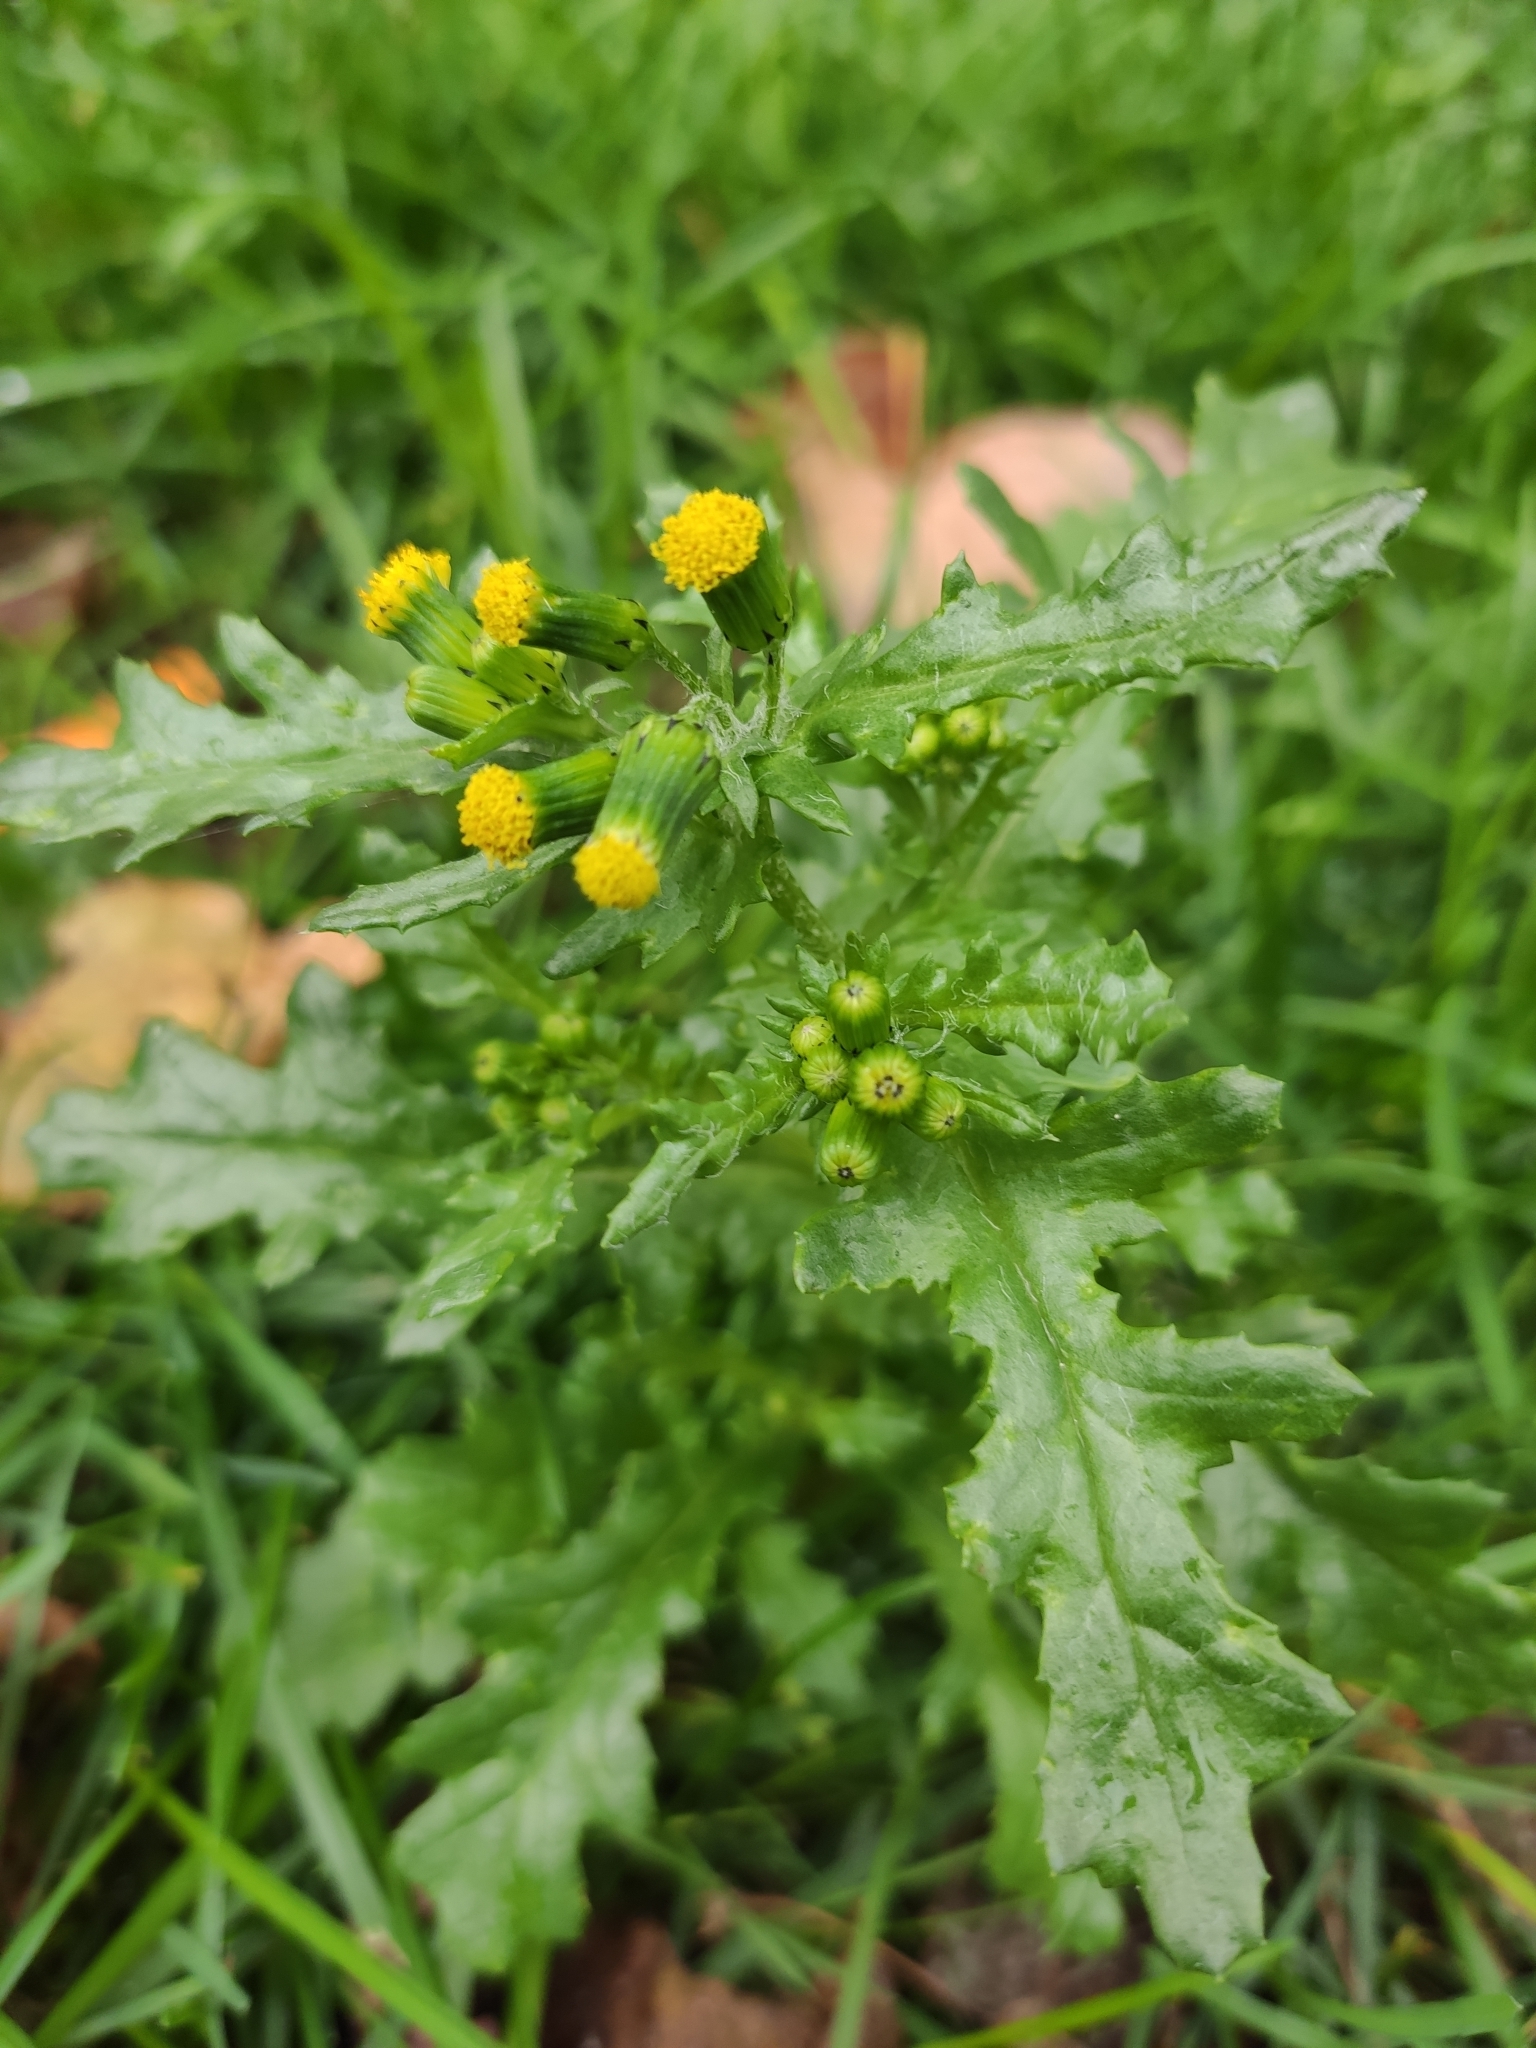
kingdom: Plantae
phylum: Tracheophyta
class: Magnoliopsida
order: Asterales
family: Asteraceae
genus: Senecio
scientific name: Senecio vulgaris
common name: Old-man-in-the-spring
